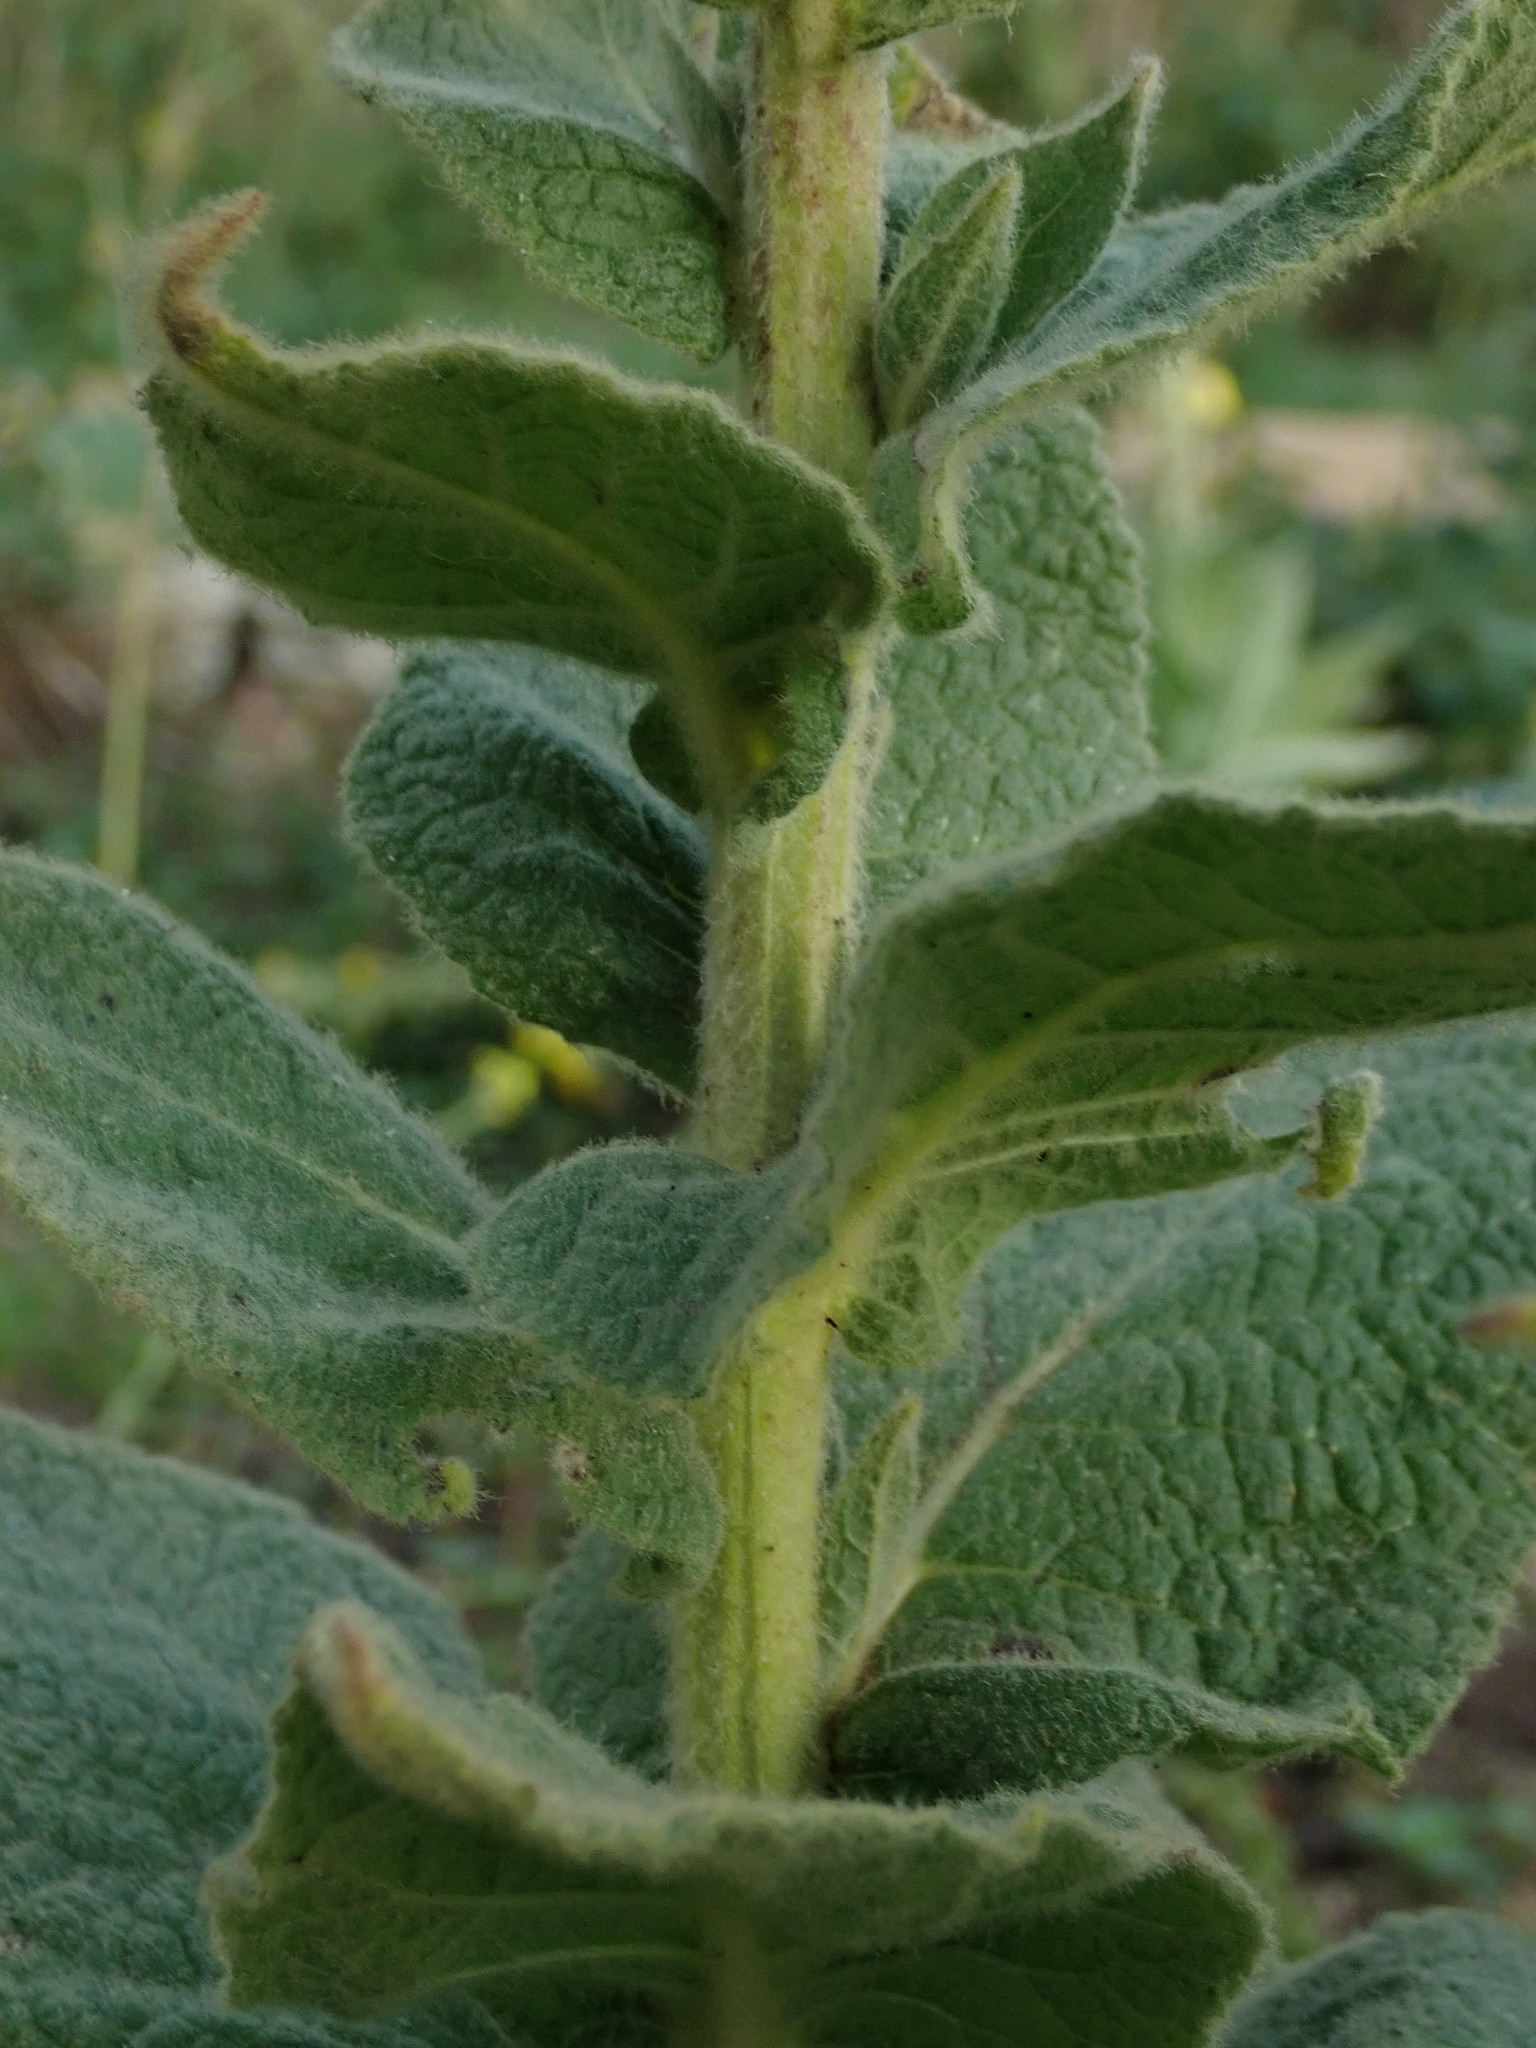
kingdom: Plantae
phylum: Tracheophyta
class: Magnoliopsida
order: Lamiales
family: Scrophulariaceae
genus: Verbascum
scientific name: Verbascum phlomoides
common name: Orange mullein
